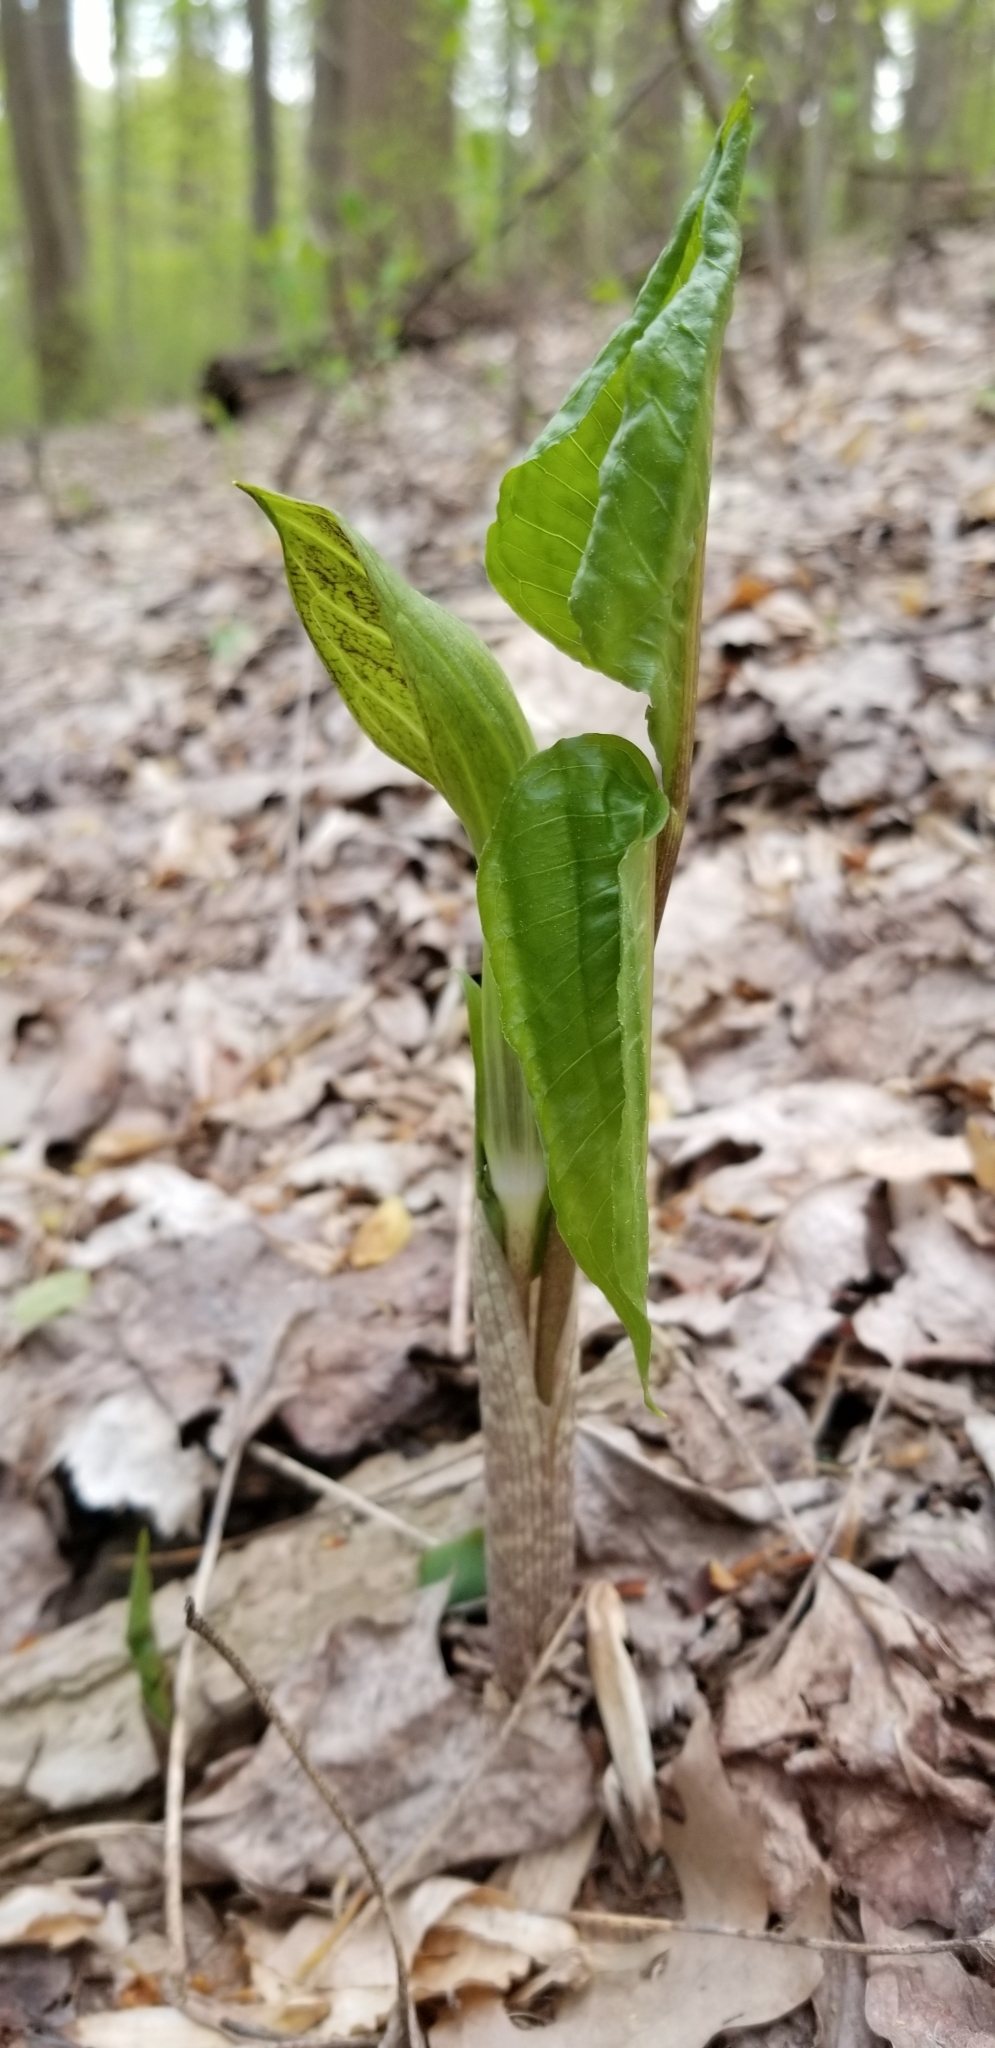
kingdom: Plantae
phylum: Tracheophyta
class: Liliopsida
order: Alismatales
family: Araceae
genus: Arisaema
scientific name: Arisaema triphyllum
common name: Jack-in-the-pulpit
